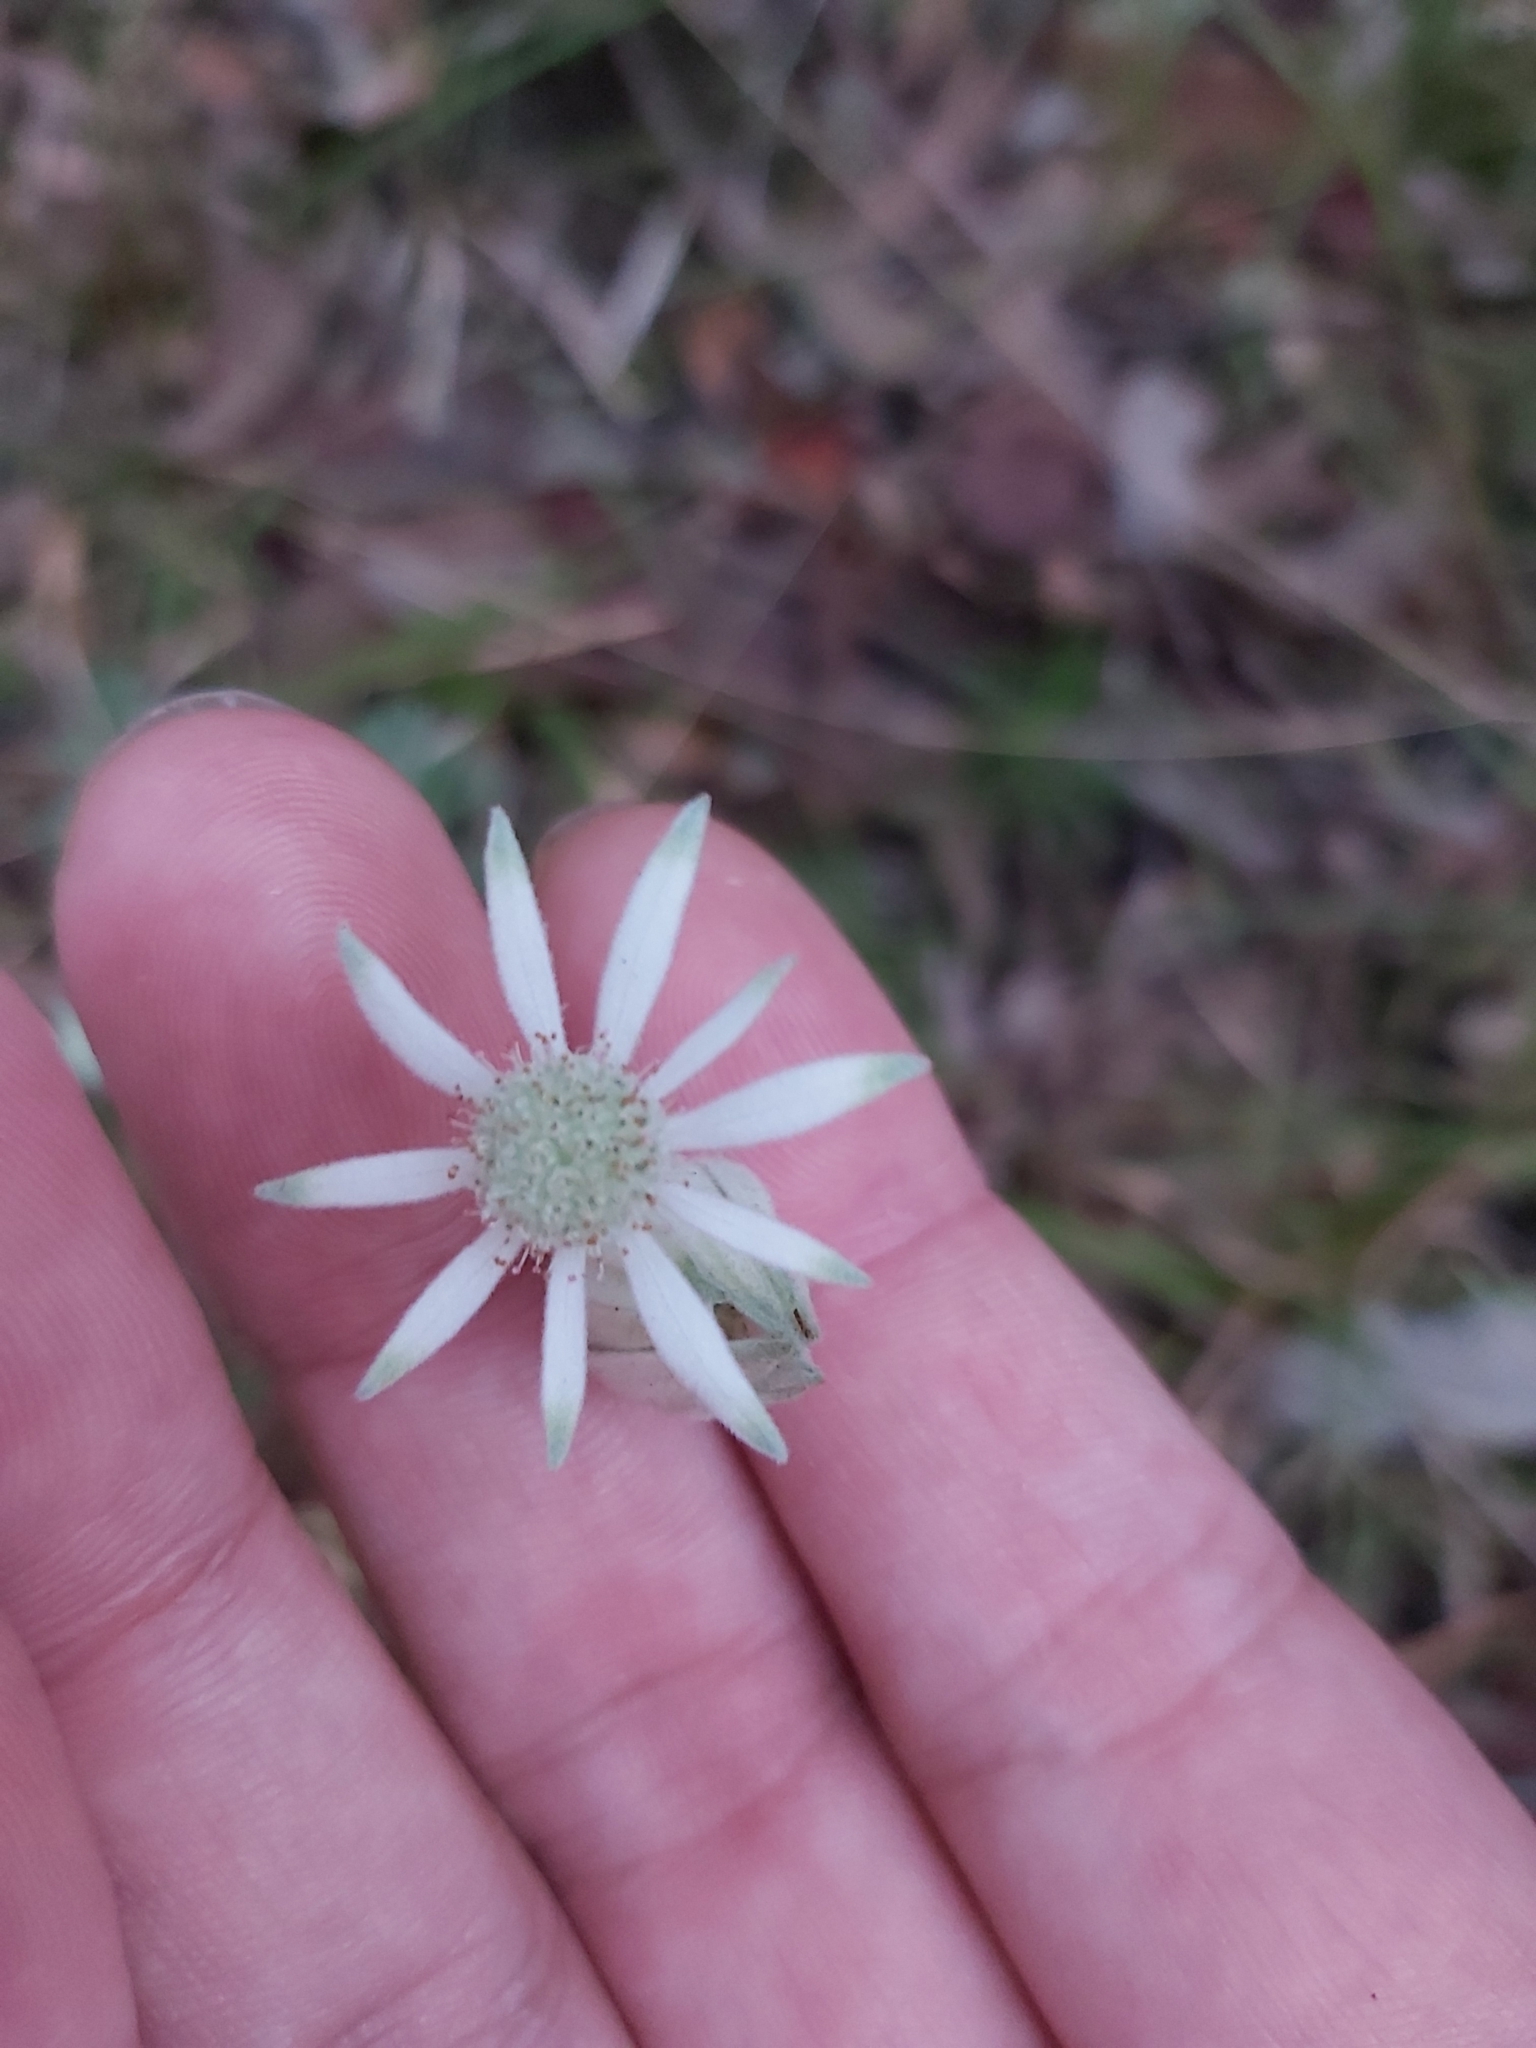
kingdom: Plantae
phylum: Tracheophyta
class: Magnoliopsida
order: Apiales
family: Apiaceae
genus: Actinotus
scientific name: Actinotus helianthi
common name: Flannel-flower
